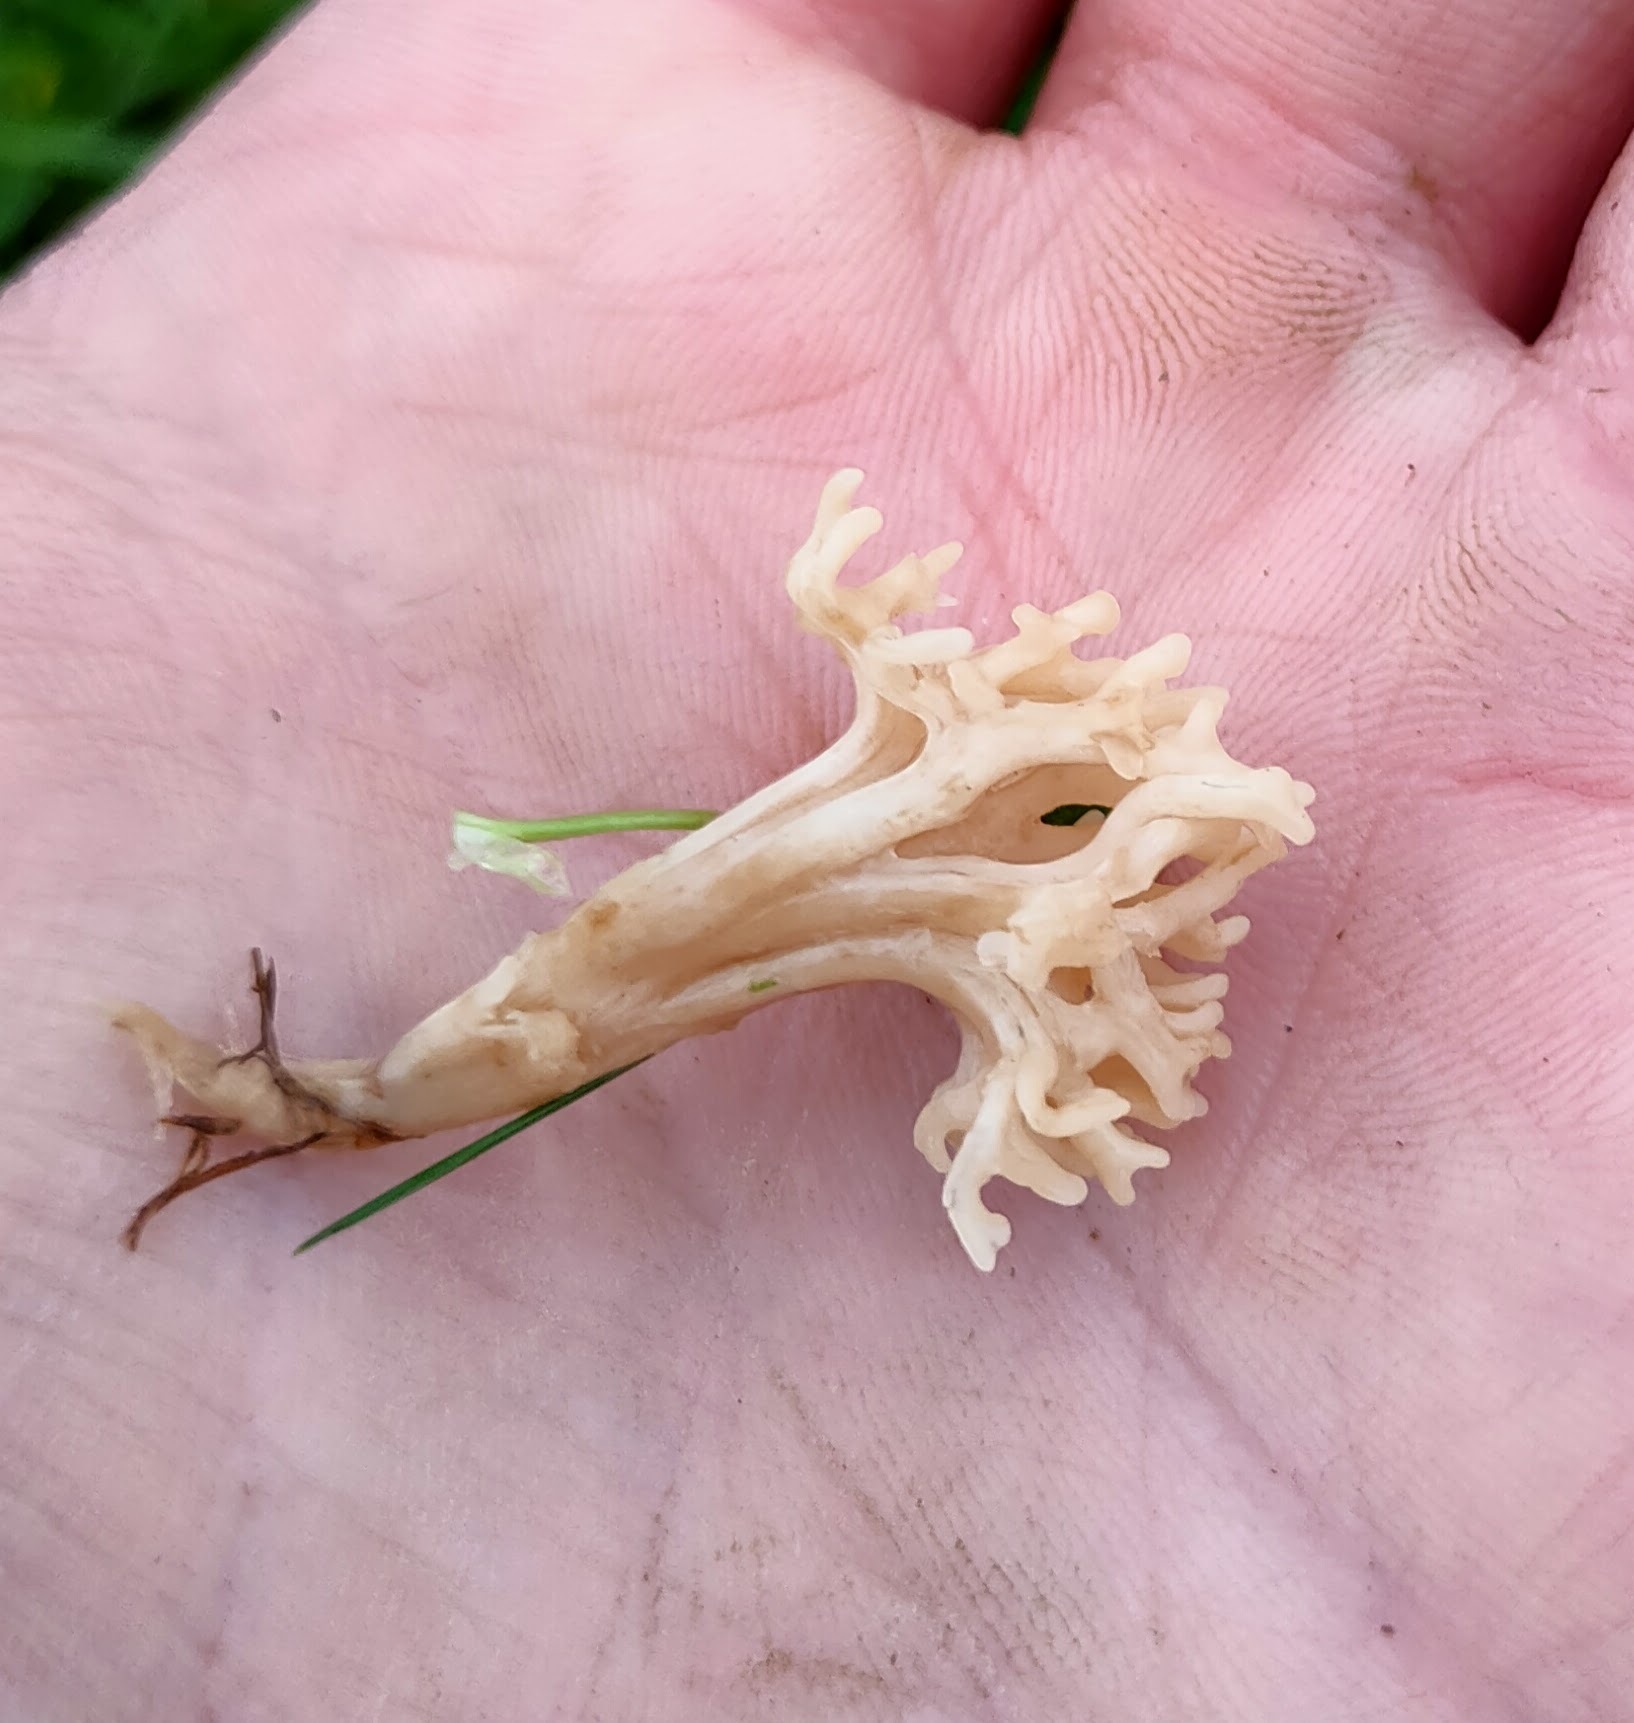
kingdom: Fungi
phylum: Basidiomycota
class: Agaricomycetes
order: Agaricales
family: Clavariaceae
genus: Clavulinopsis
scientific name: Clavulinopsis umbrinella
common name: Beige coral
